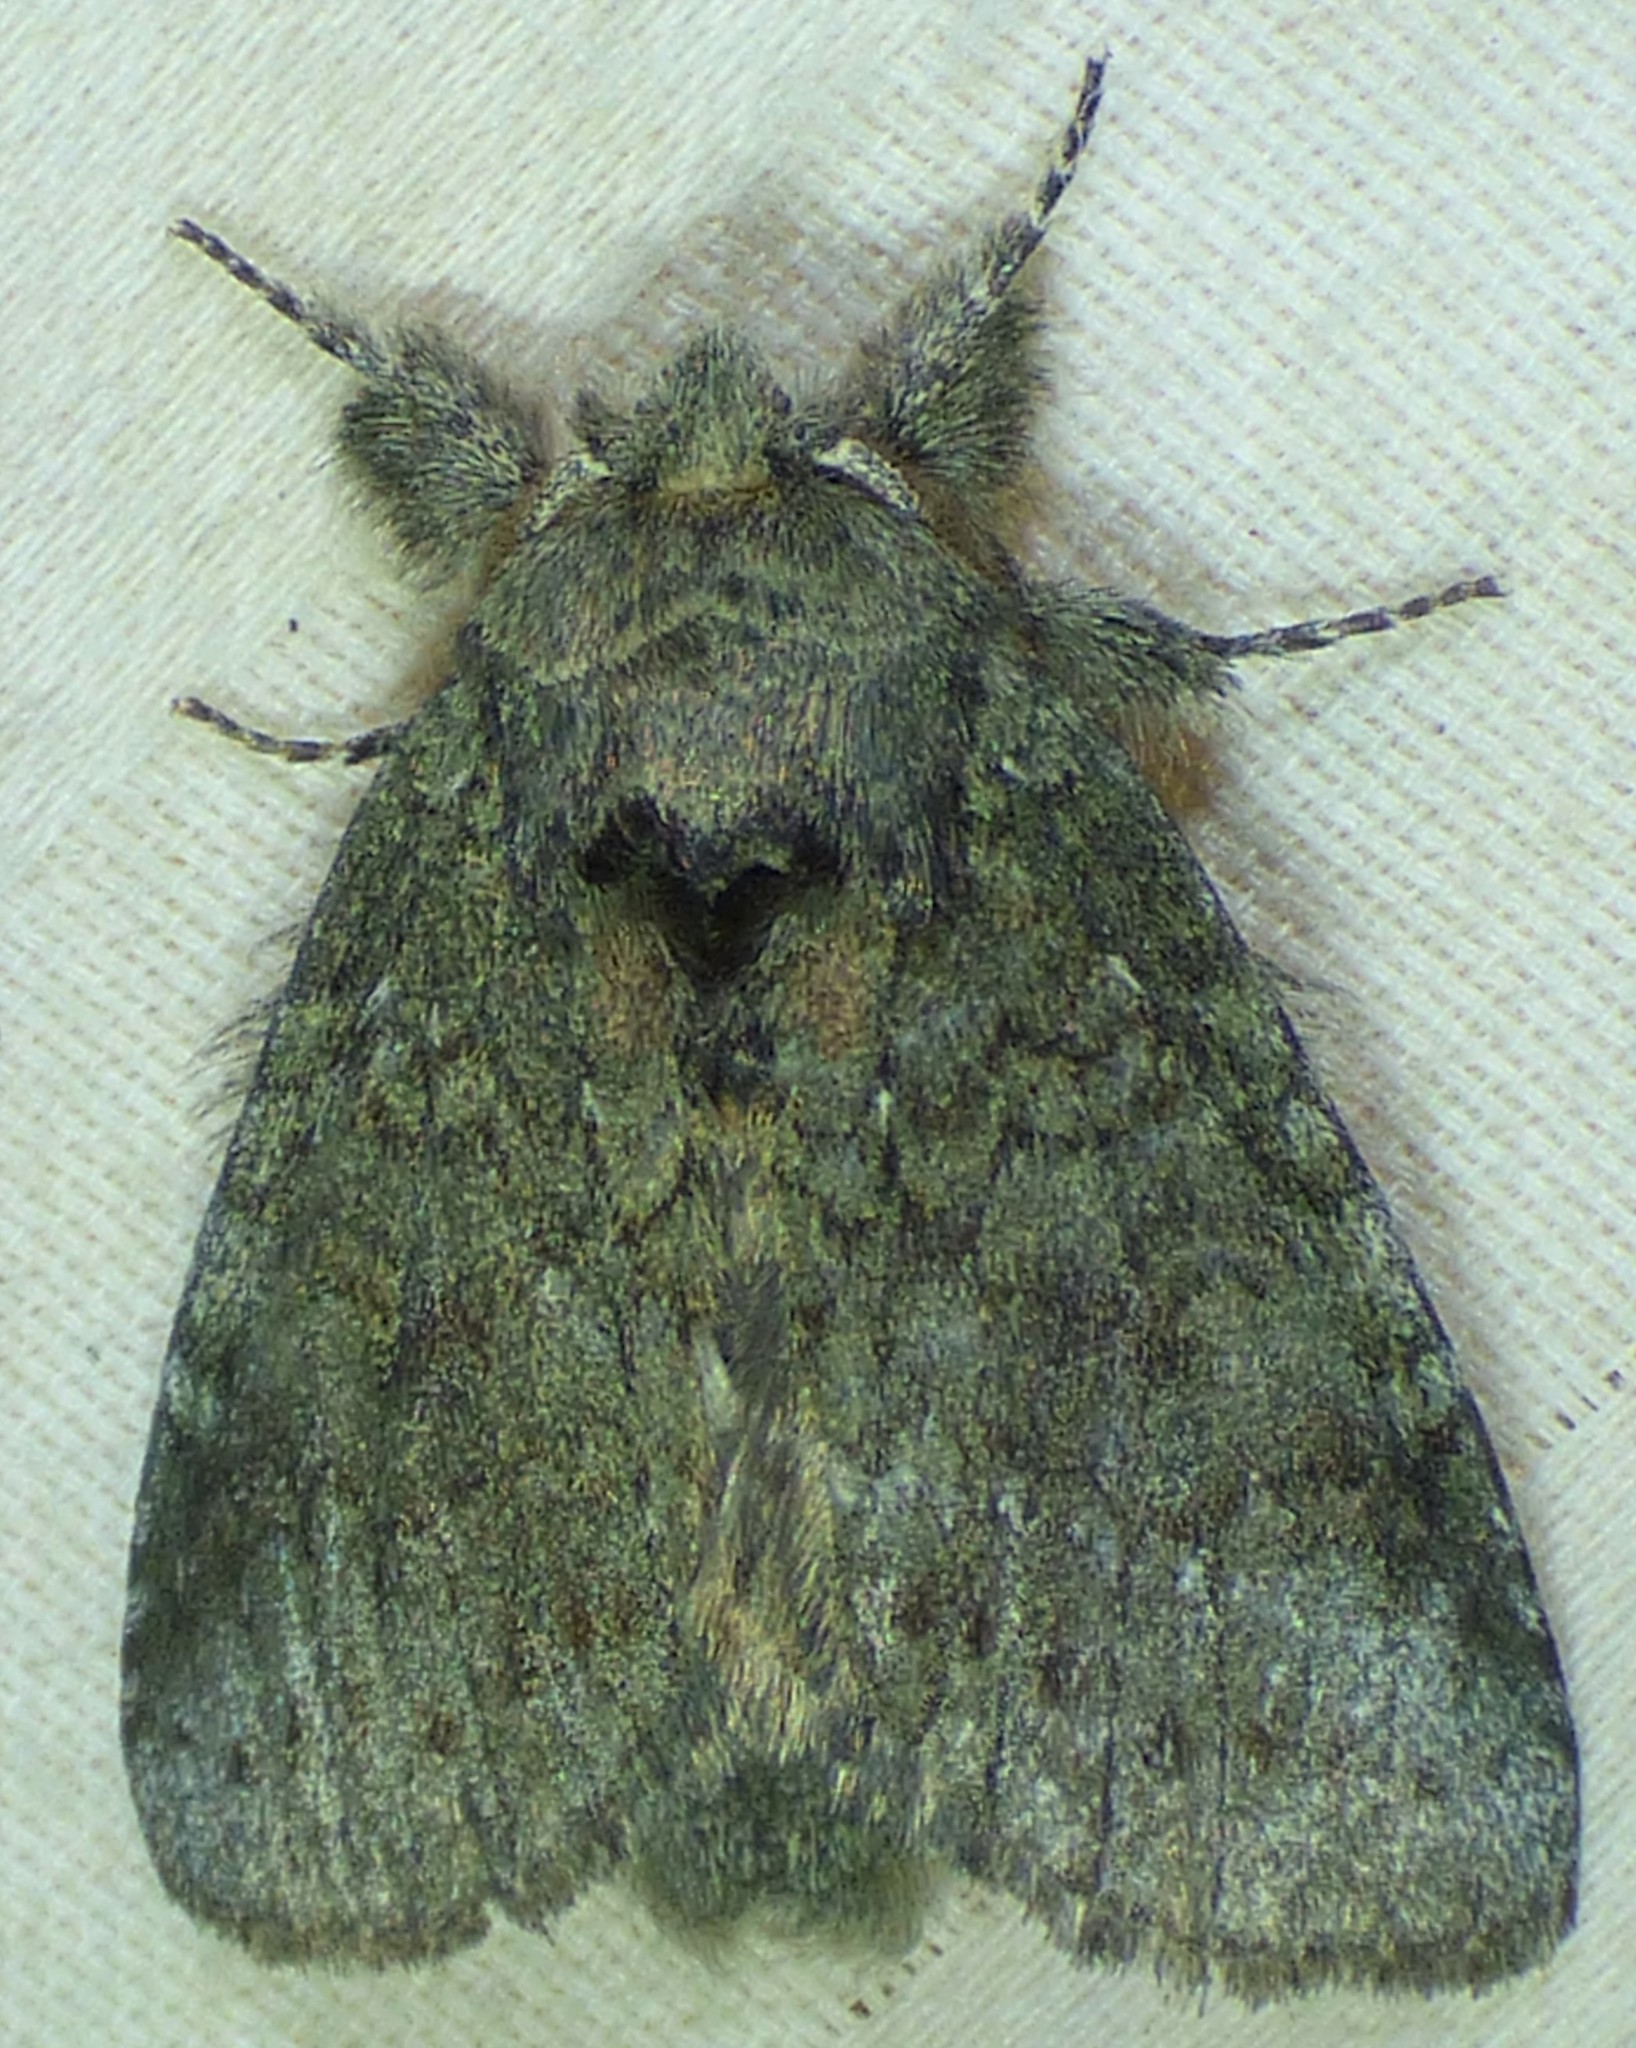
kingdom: Animalia
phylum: Arthropoda
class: Insecta
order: Lepidoptera
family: Notodontidae
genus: Disphragis
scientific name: Disphragis Cecrita guttivitta
